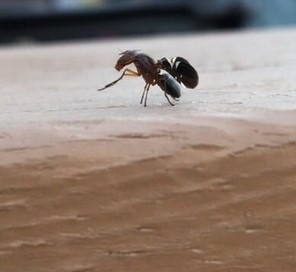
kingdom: Animalia
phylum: Arthropoda
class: Insecta
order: Diptera
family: Ulidiidae
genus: Delphinia
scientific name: Delphinia picta
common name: Common picture-winged fly
